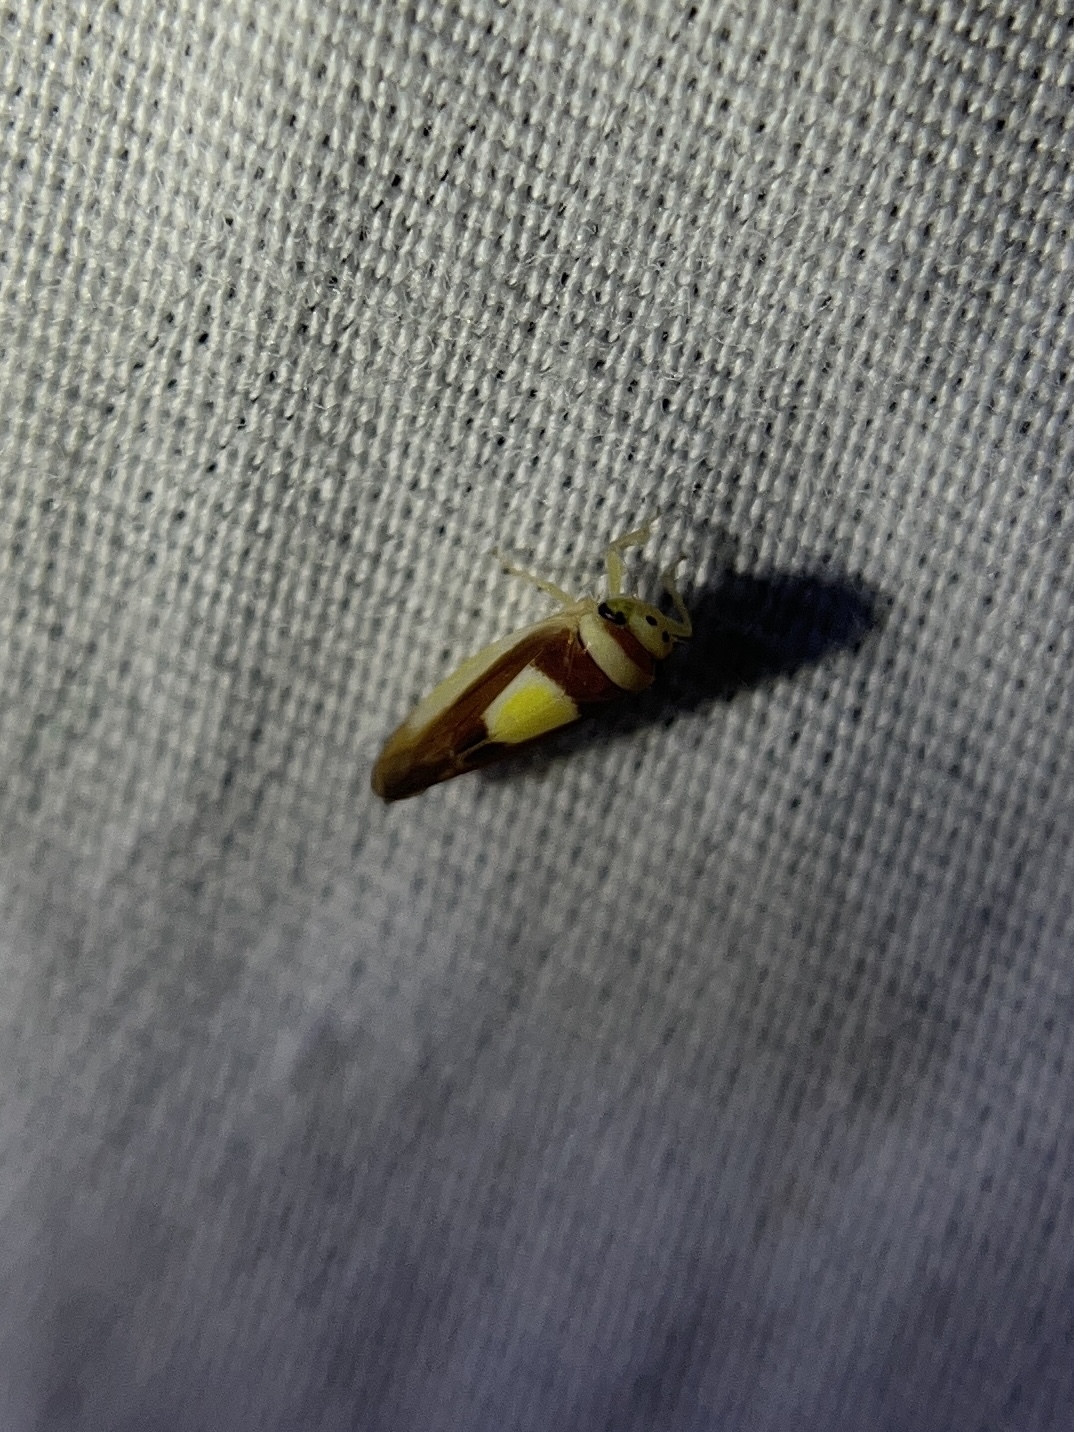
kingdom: Animalia
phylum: Arthropoda
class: Insecta
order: Hemiptera
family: Cicadellidae
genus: Colladonus
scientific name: Colladonus clitellarius
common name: The saddleback leafhopper
